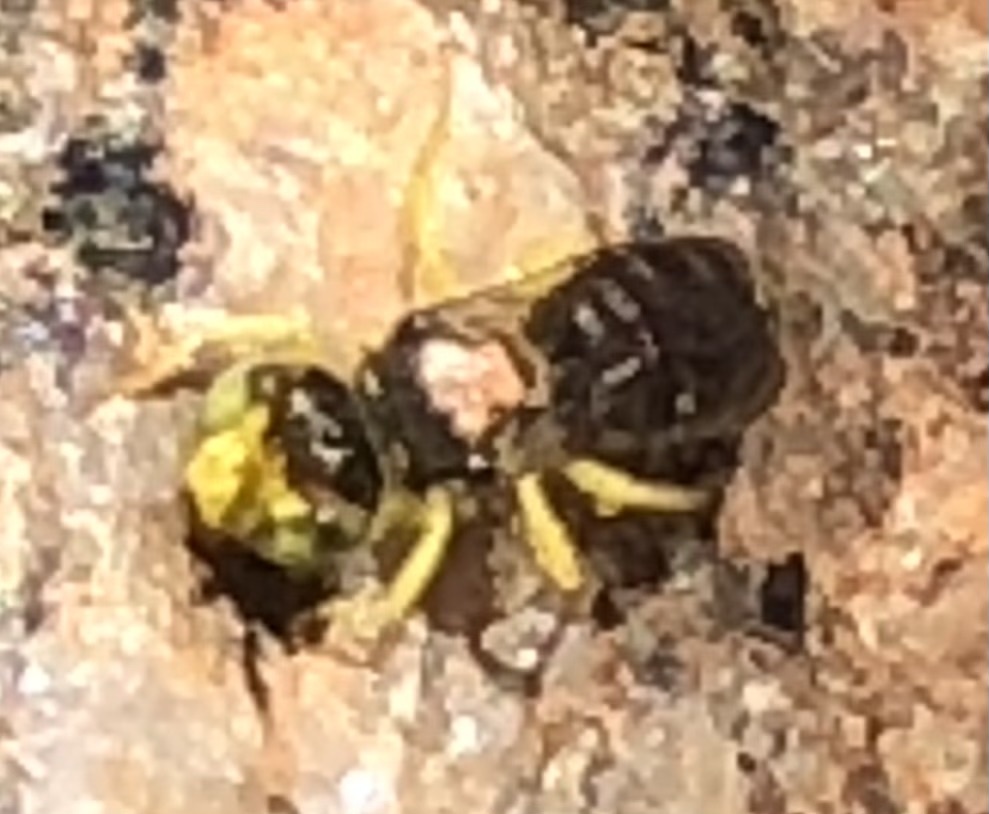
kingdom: Animalia
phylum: Arthropoda
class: Insecta
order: Hymenoptera
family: Andrenidae
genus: Calliopsis
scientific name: Calliopsis andreniformis
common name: Eastern calliopsis bee
